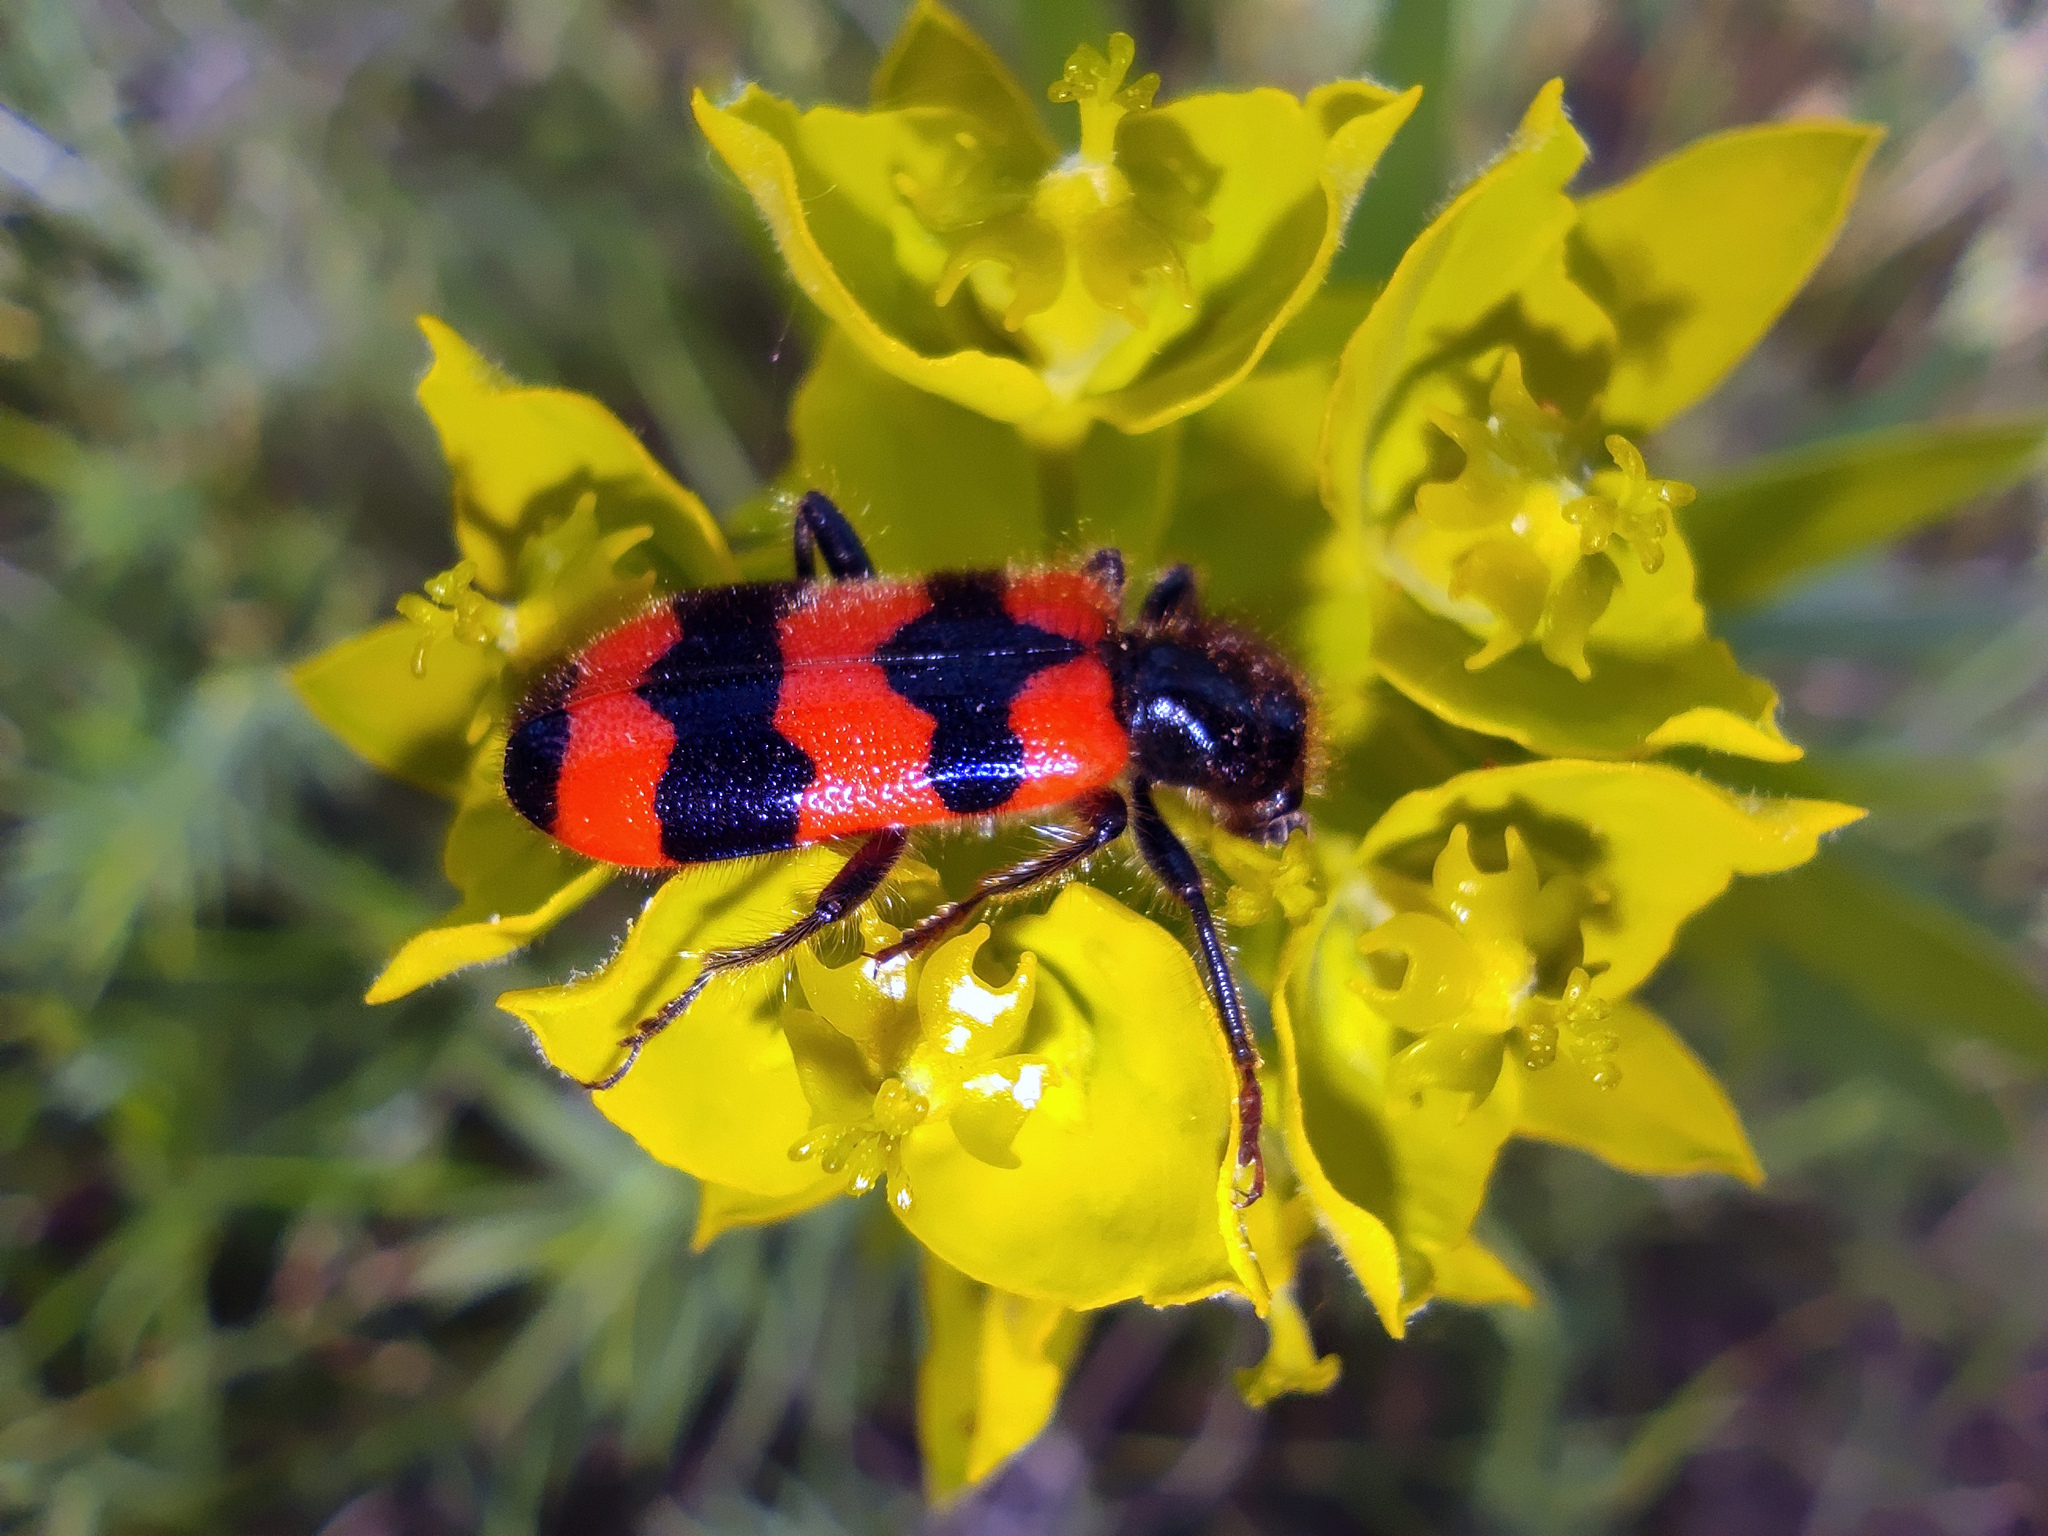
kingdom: Animalia
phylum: Arthropoda
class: Insecta
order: Coleoptera
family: Cleridae
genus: Trichodes
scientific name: Trichodes apiarius
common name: Bee-eating beetle
